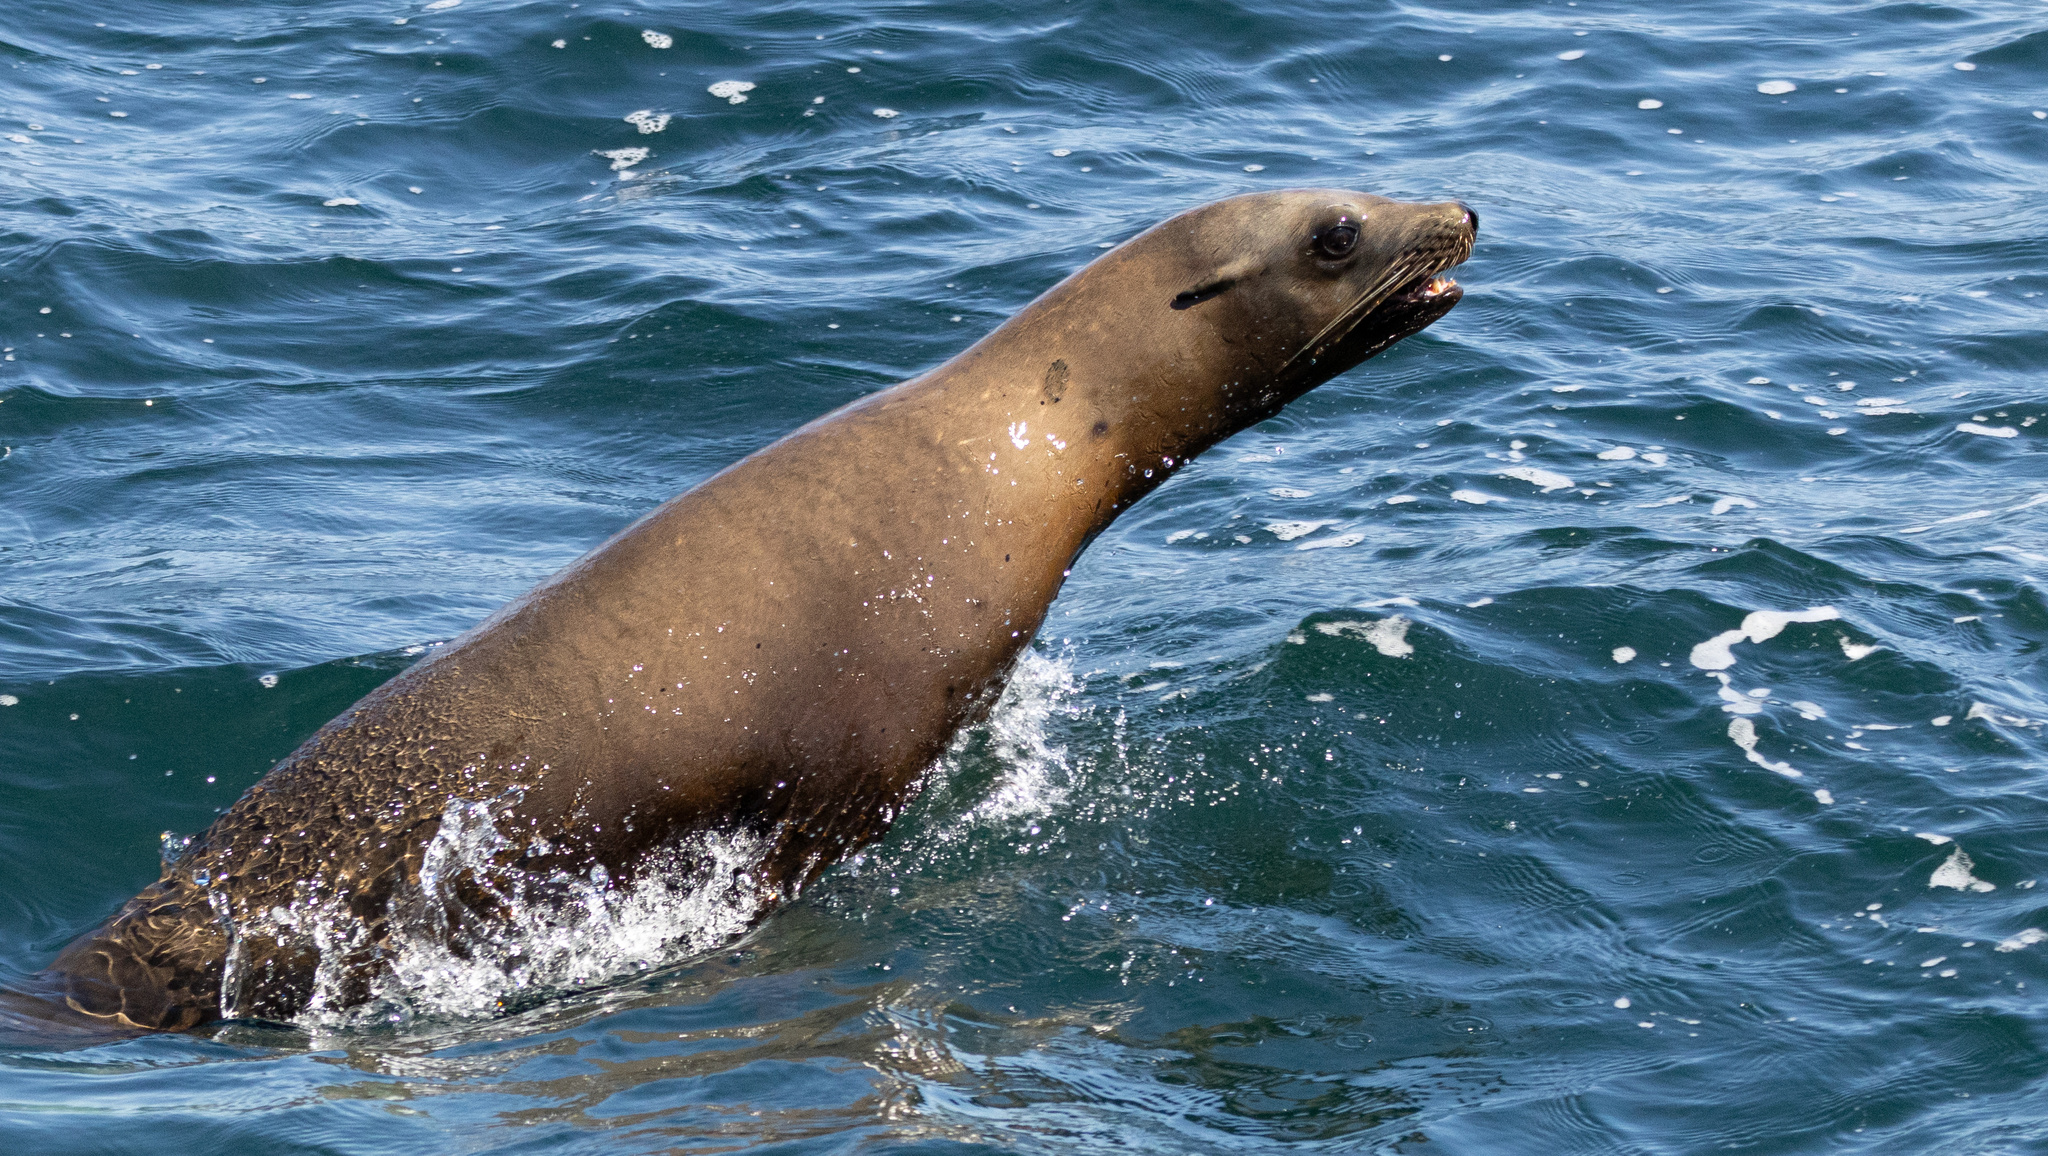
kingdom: Animalia
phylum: Chordata
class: Mammalia
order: Carnivora
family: Otariidae
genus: Zalophus
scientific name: Zalophus californianus
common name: California sea lion
